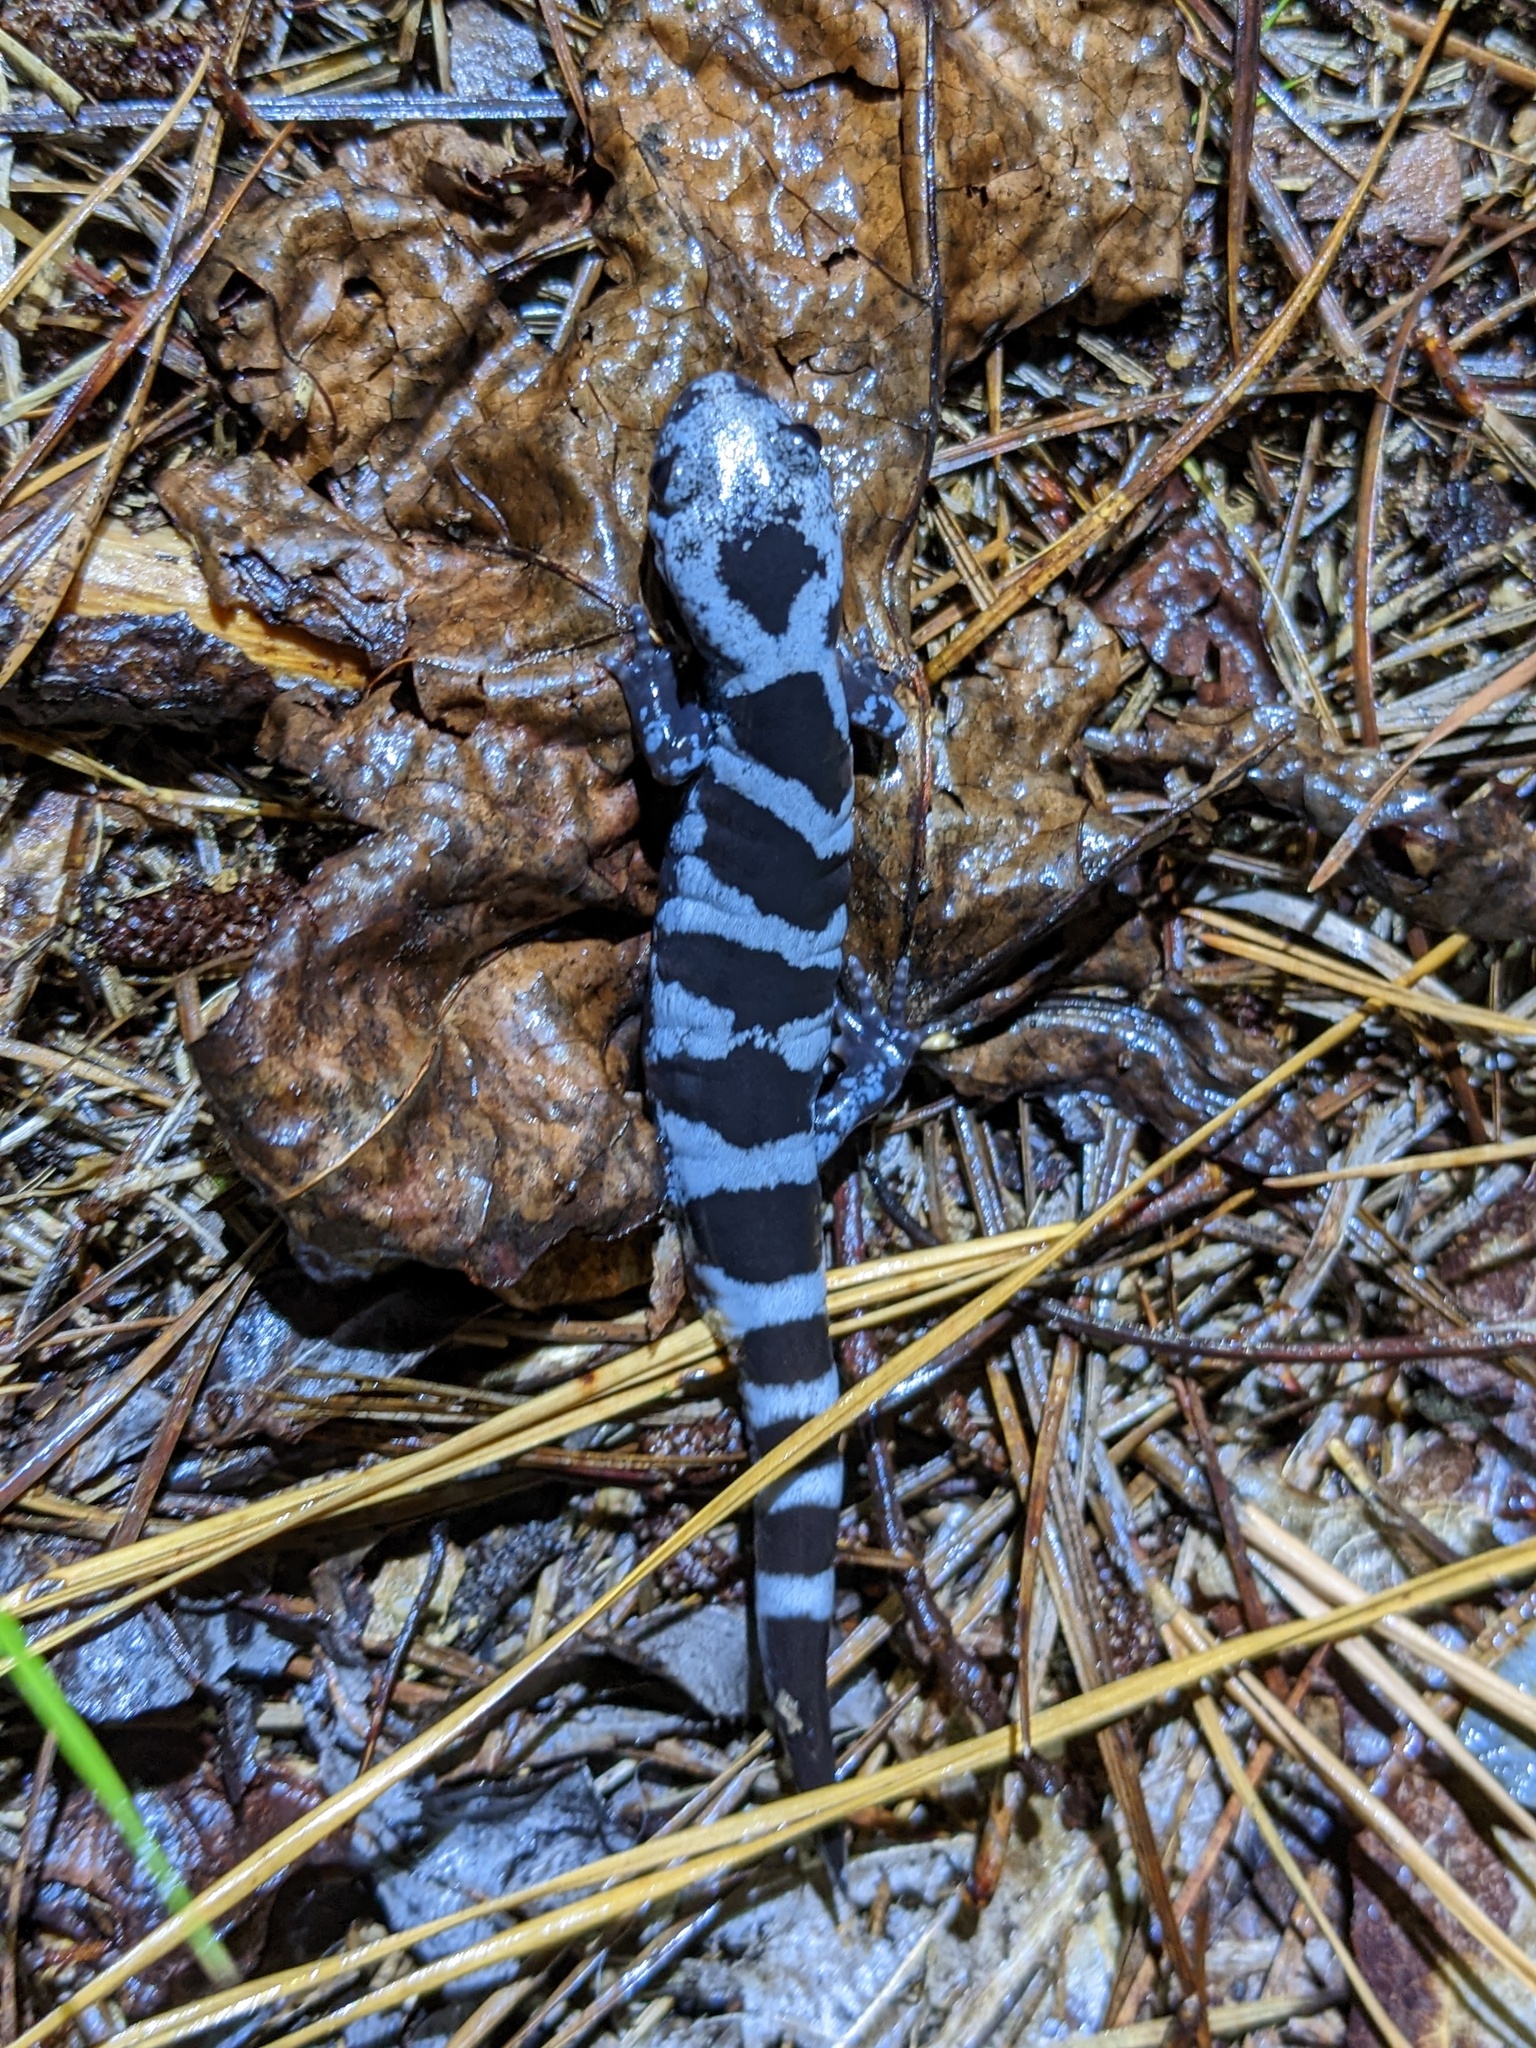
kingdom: Animalia
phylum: Chordata
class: Amphibia
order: Caudata
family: Ambystomatidae
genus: Ambystoma
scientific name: Ambystoma opacum
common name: Marbled salamander
